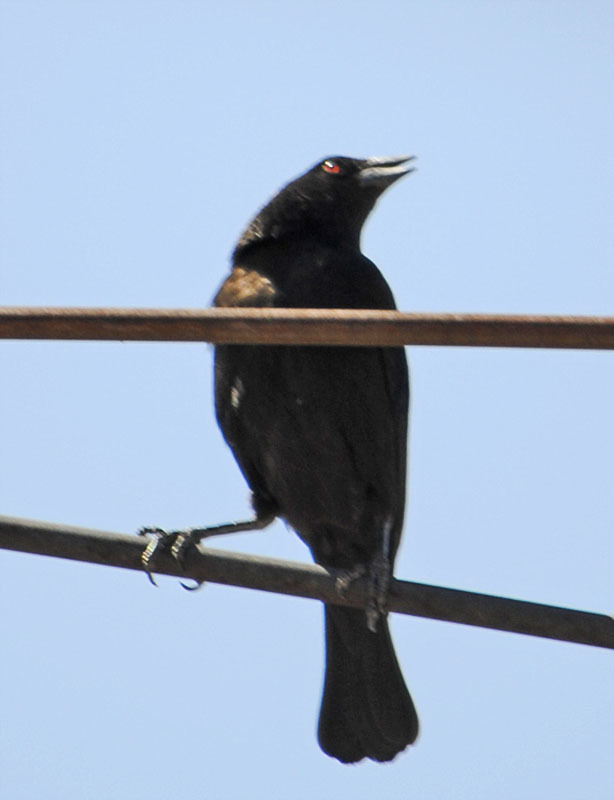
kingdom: Animalia
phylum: Chordata
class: Aves
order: Passeriformes
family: Icteridae
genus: Molothrus
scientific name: Molothrus aeneus
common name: Bronzed cowbird
